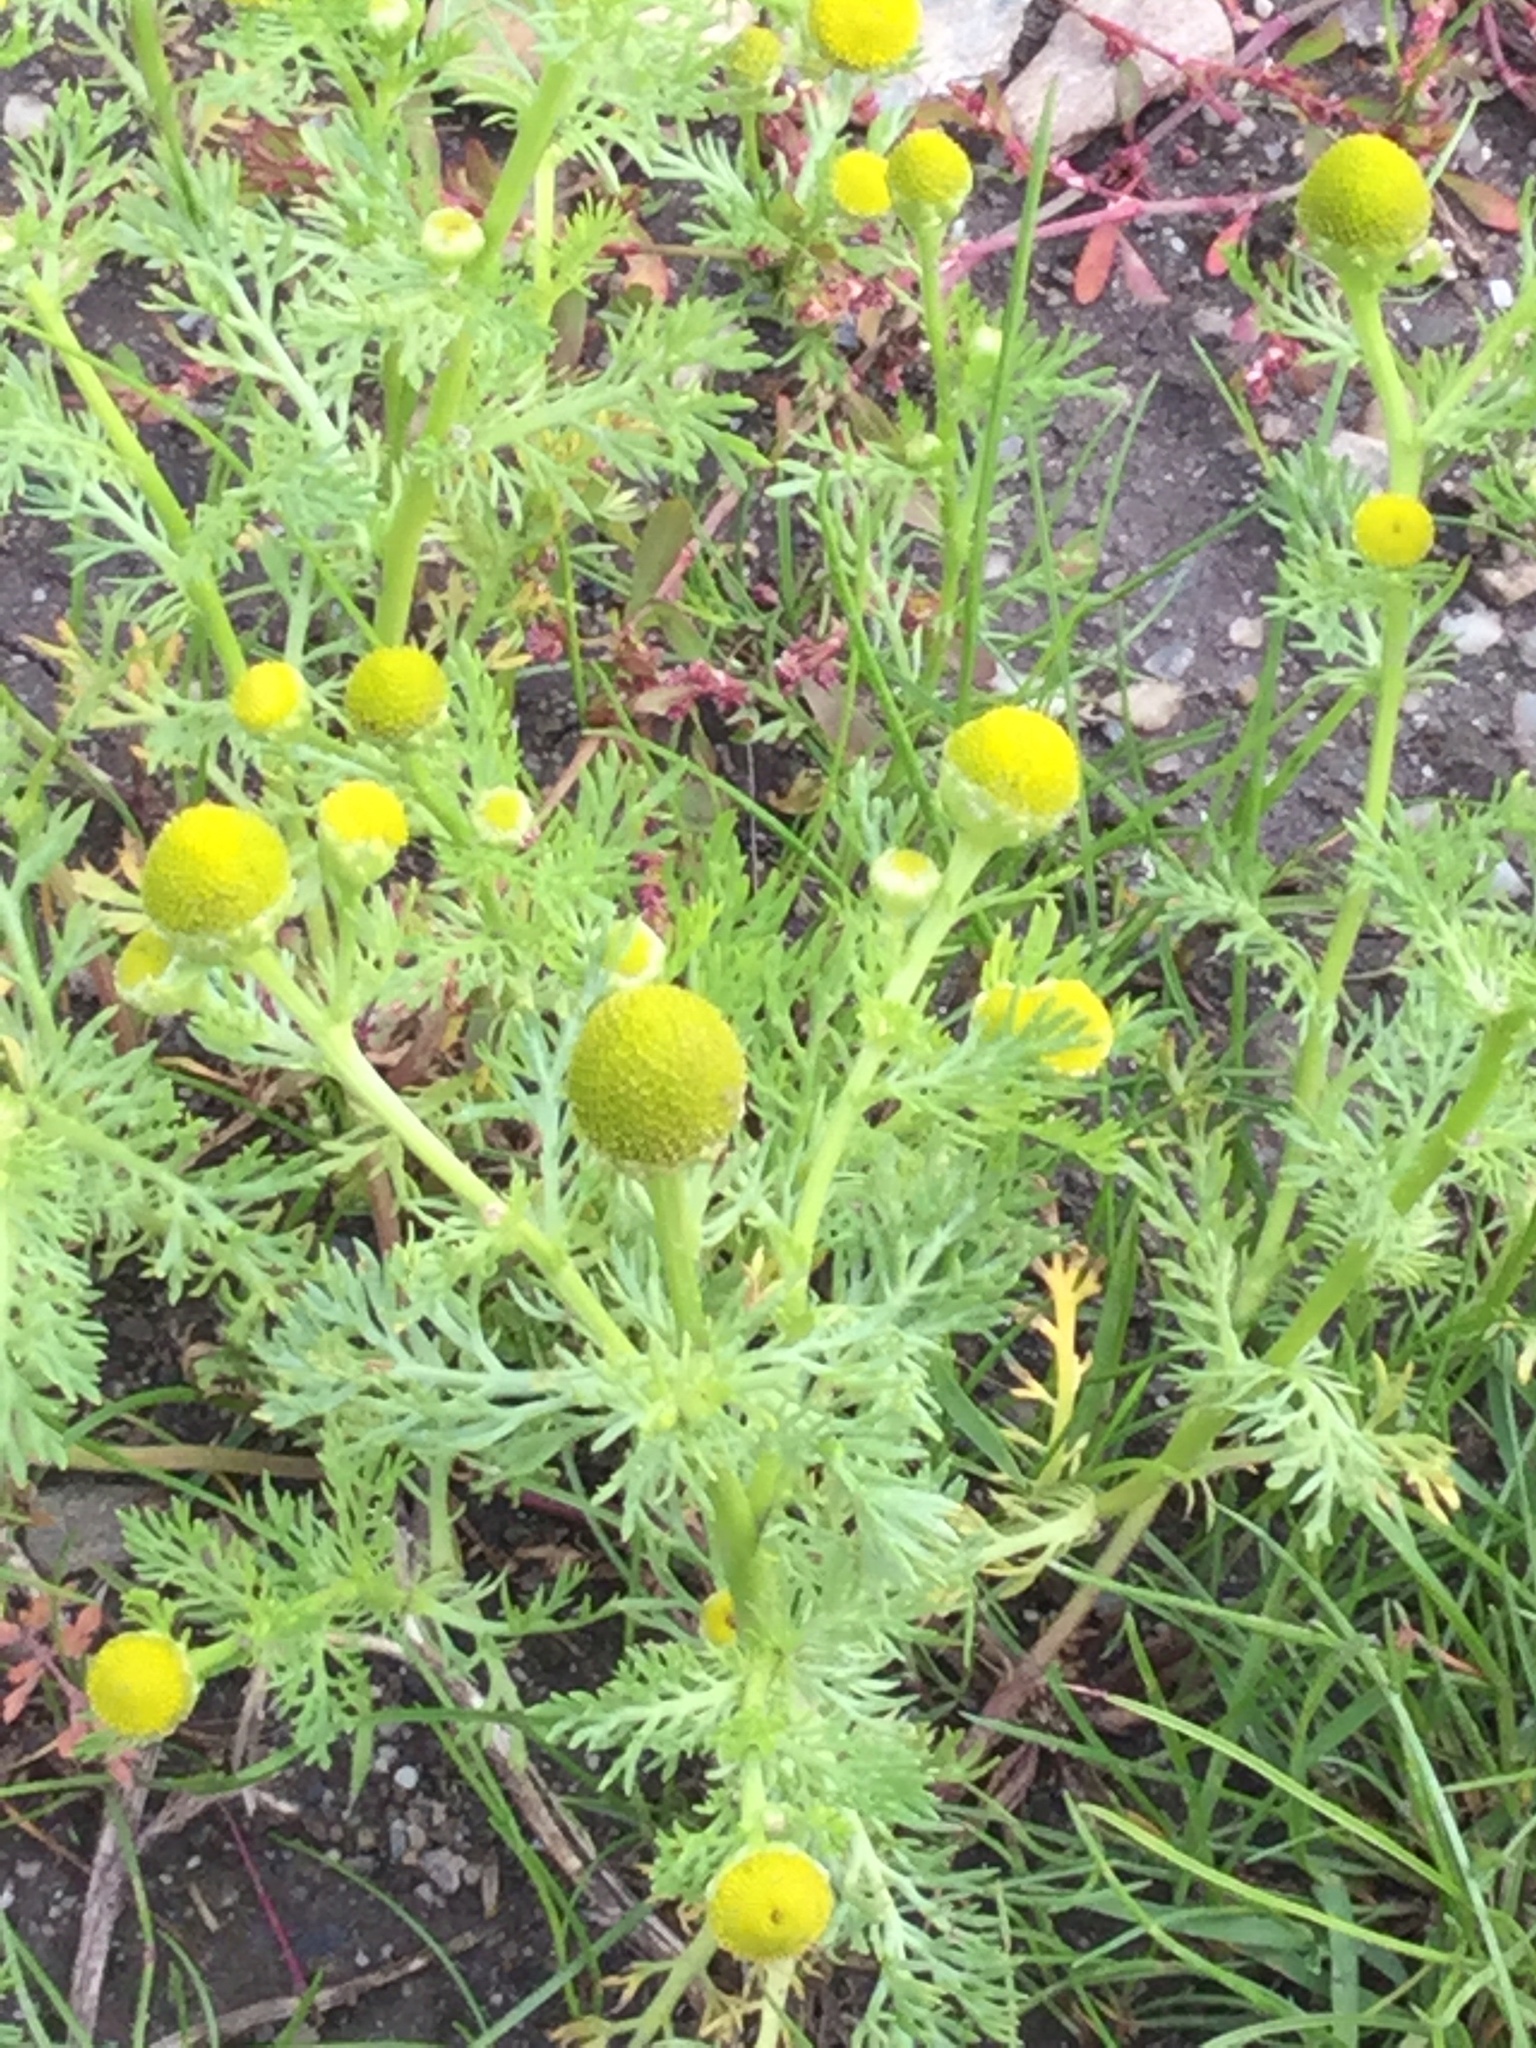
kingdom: Plantae
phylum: Tracheophyta
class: Magnoliopsida
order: Asterales
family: Asteraceae
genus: Matricaria
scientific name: Matricaria discoidea
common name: Disc mayweed
